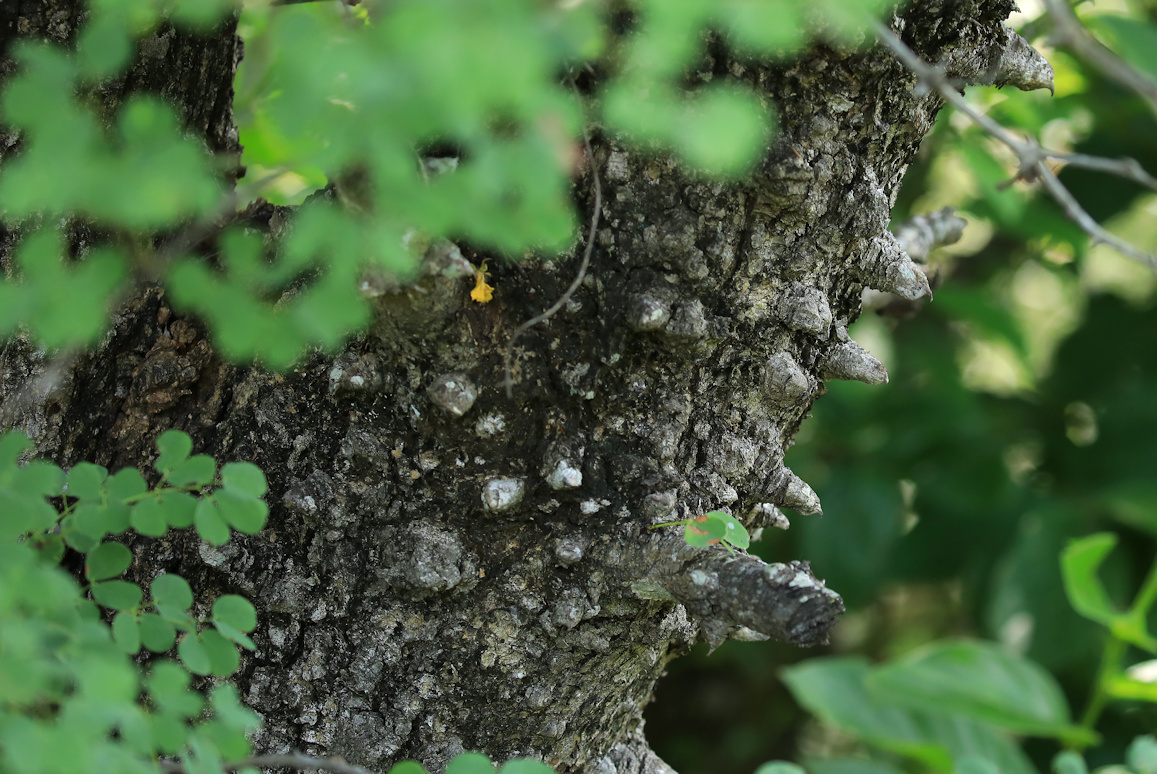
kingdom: Plantae
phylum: Tracheophyta
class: Magnoliopsida
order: Fabales
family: Fabaceae
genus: Senegalia
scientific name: Senegalia nigrescens
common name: Knobthorn
